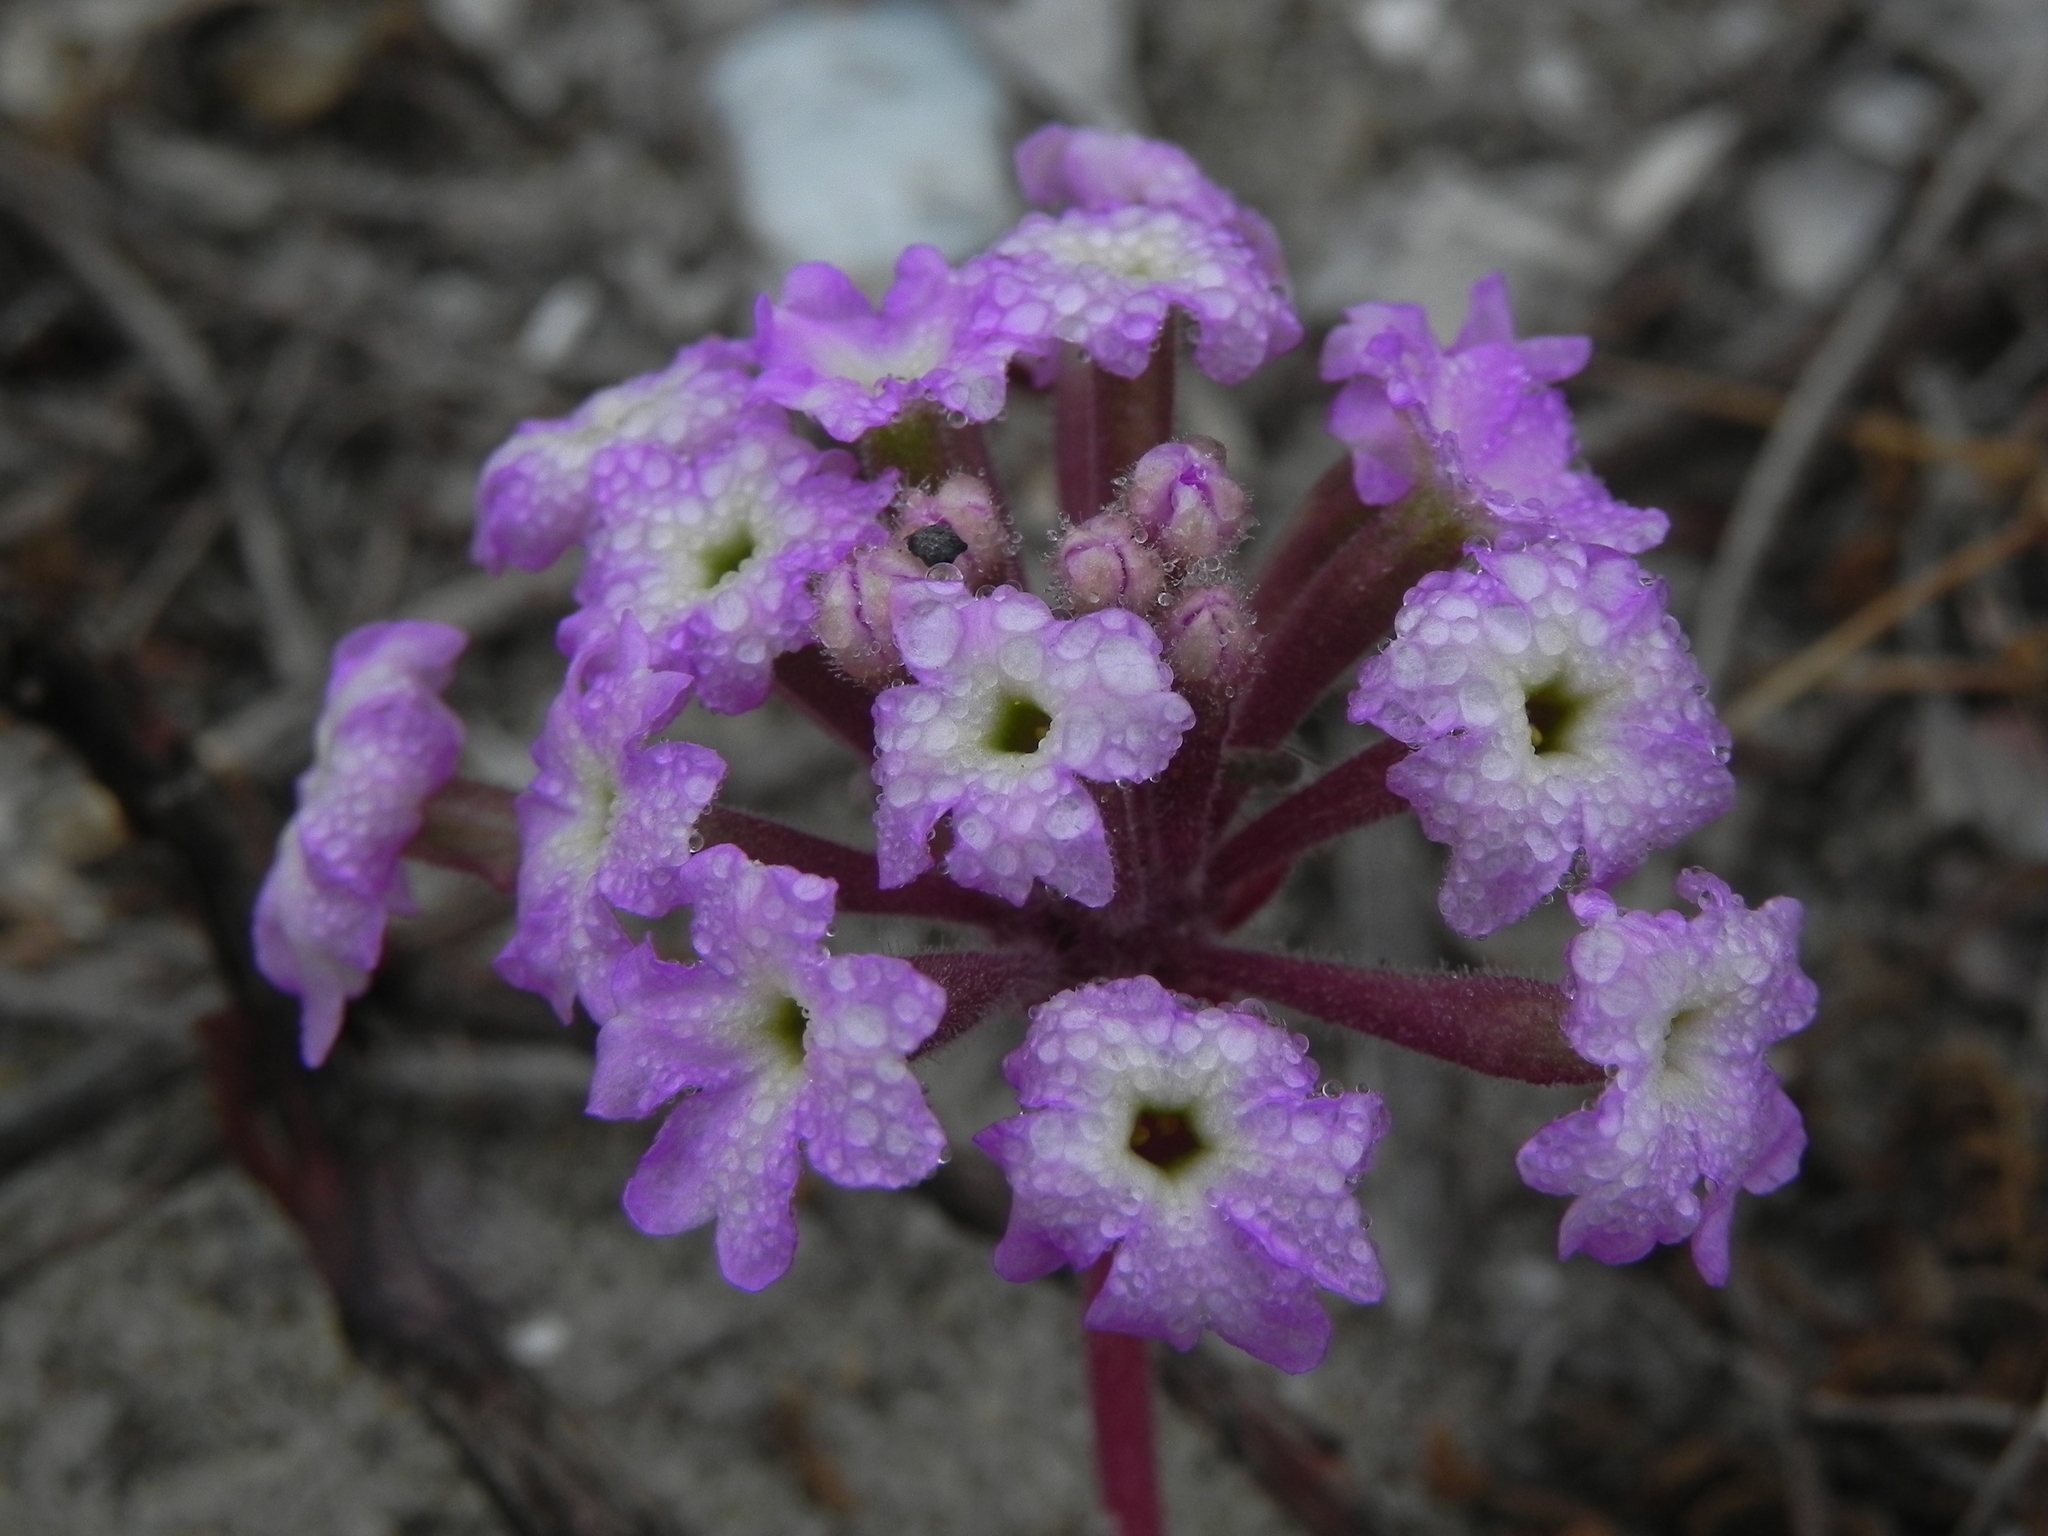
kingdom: Plantae
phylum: Tracheophyta
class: Magnoliopsida
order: Caryophyllales
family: Nyctaginaceae
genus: Abronia
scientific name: Abronia umbellata
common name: Sand-verbena
